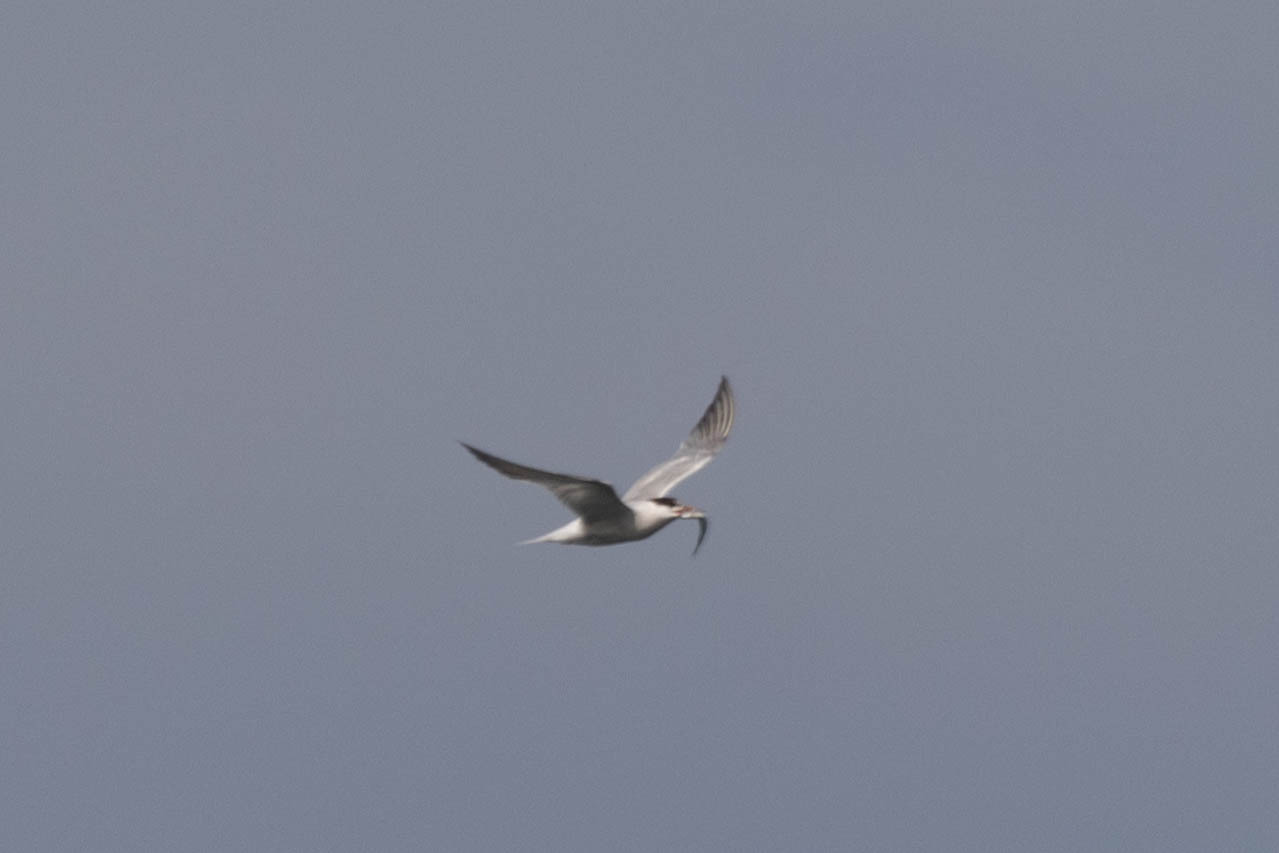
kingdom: Animalia
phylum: Chordata
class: Aves
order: Charadriiformes
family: Laridae
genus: Sterna
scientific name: Sterna hirundo
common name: Common tern
